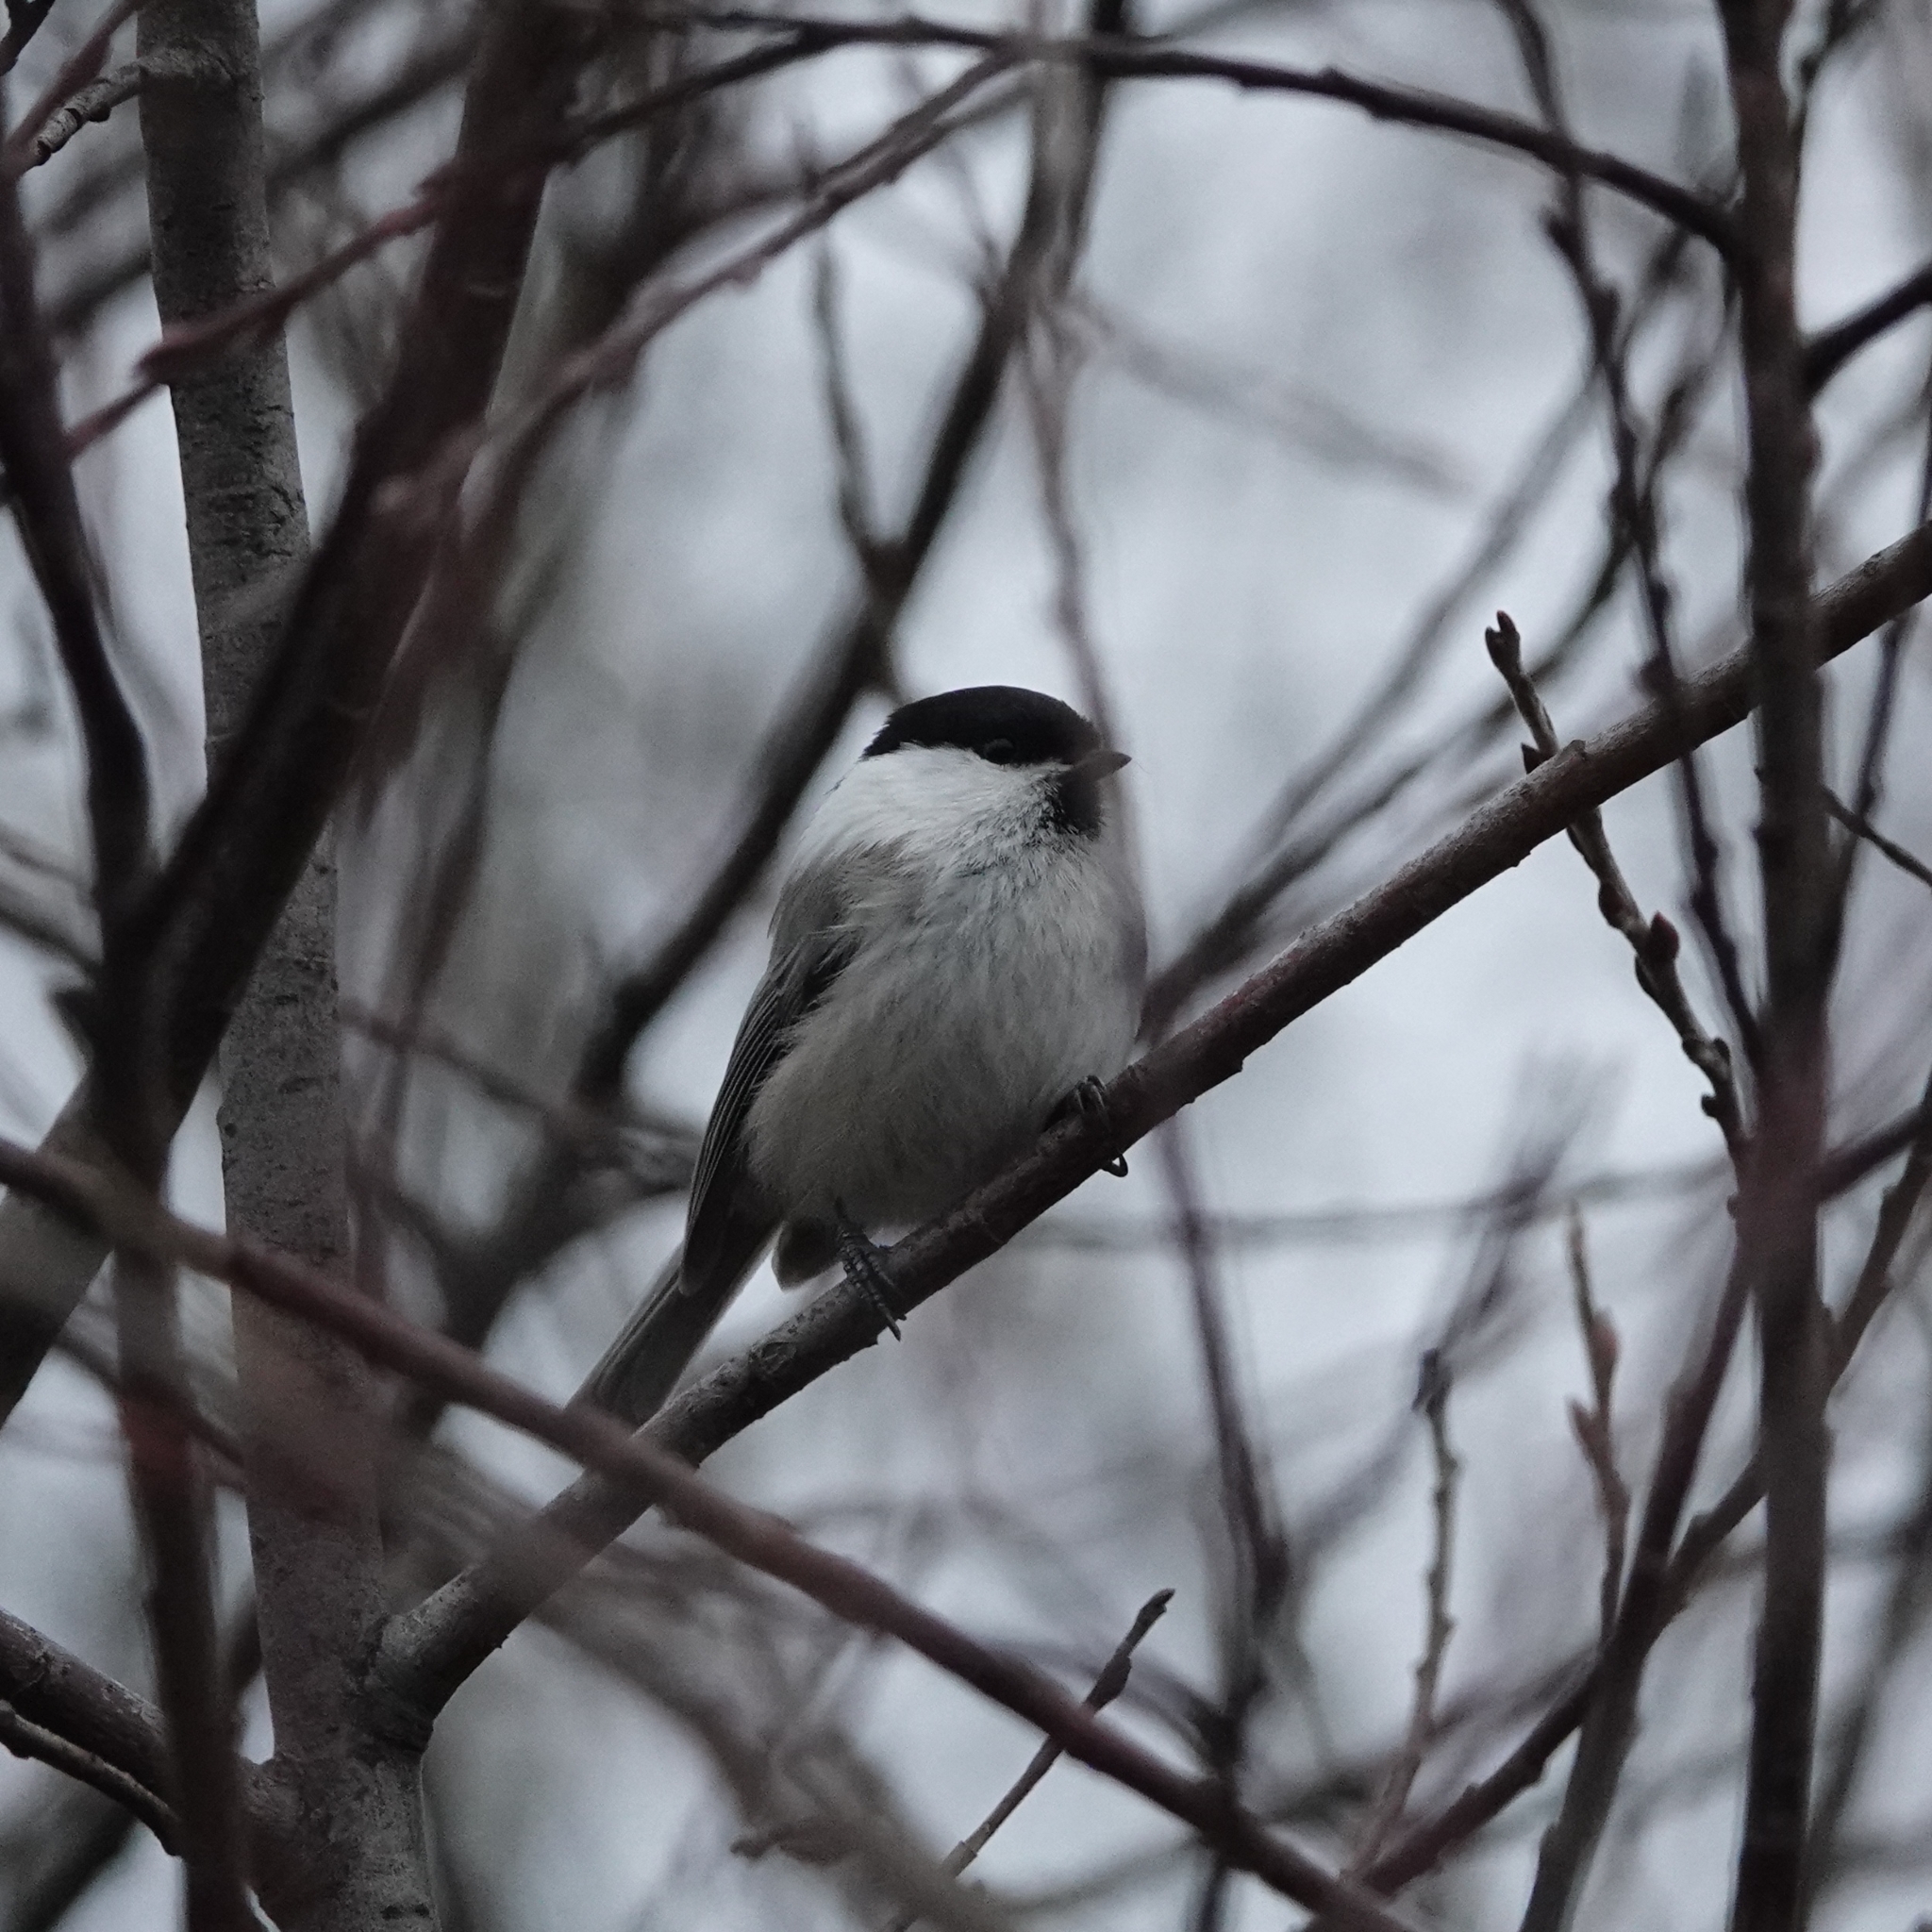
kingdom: Animalia
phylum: Chordata
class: Aves
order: Passeriformes
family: Paridae
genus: Poecile
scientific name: Poecile montanus
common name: Willow tit
